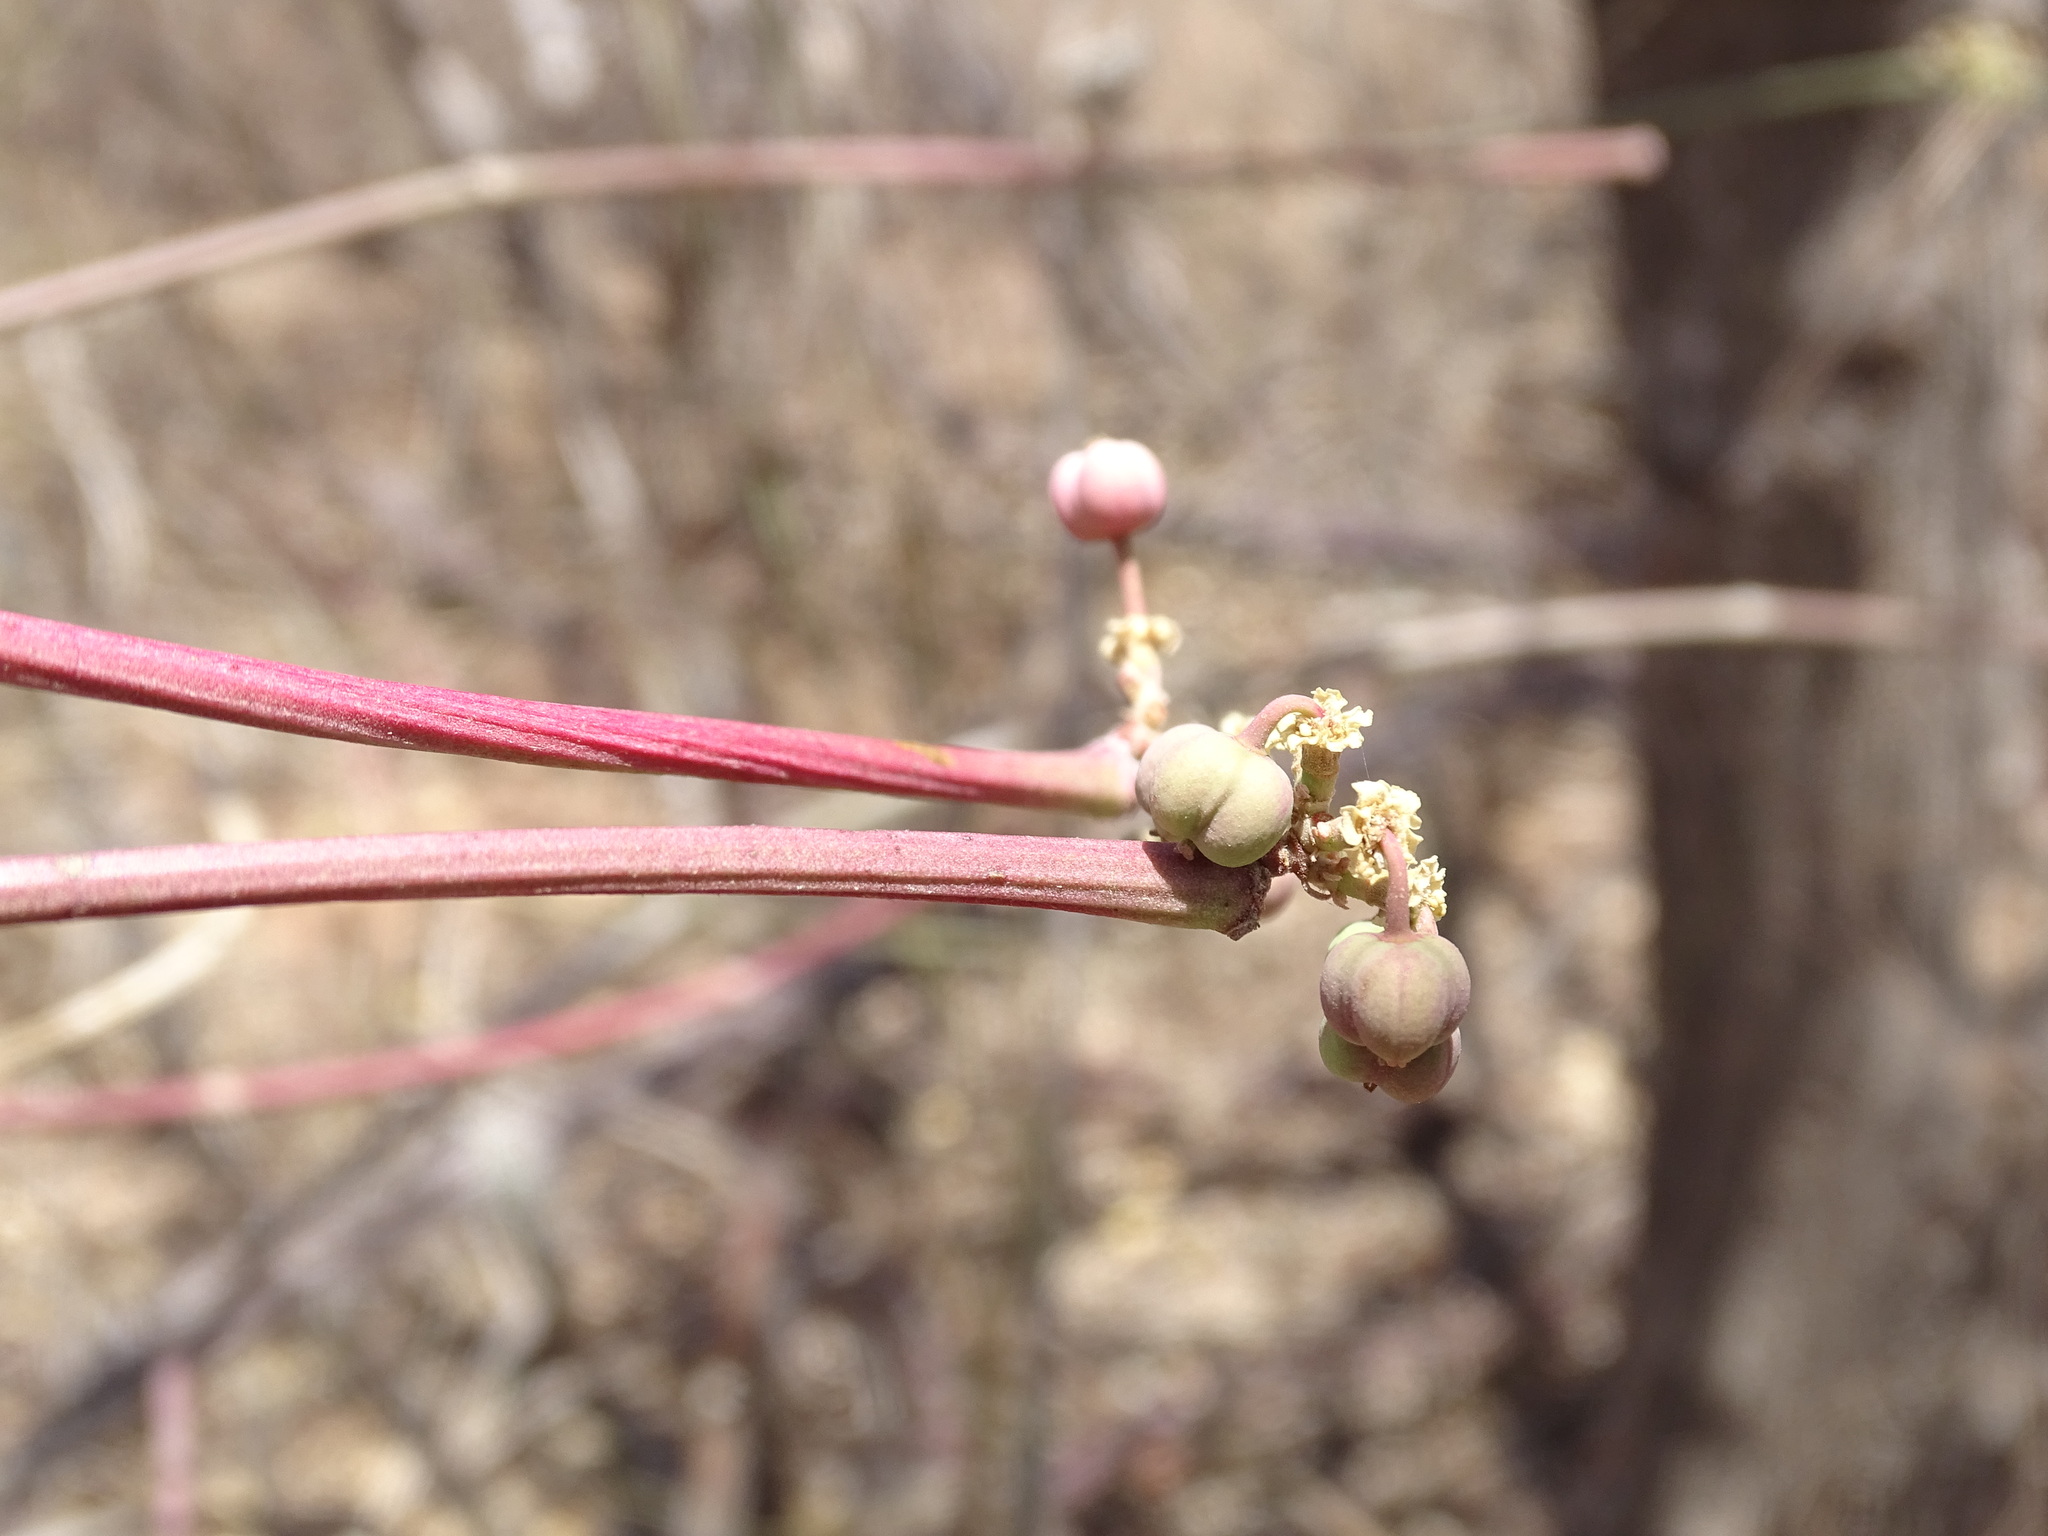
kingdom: Plantae
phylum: Tracheophyta
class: Magnoliopsida
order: Malpighiales
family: Euphorbiaceae
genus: Euphorbia
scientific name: Euphorbia cymosa
